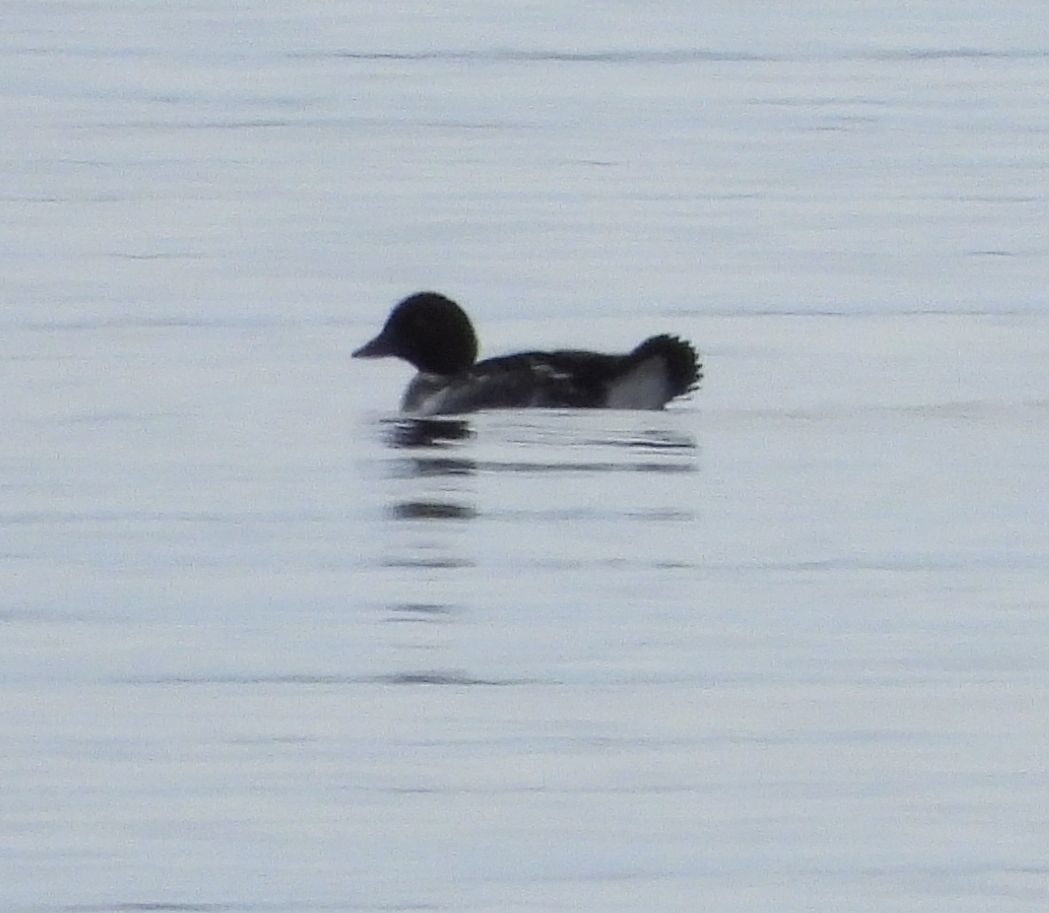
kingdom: Animalia
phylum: Chordata
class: Aves
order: Anseriformes
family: Anatidae
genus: Bucephala
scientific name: Bucephala clangula
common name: Common goldeneye
